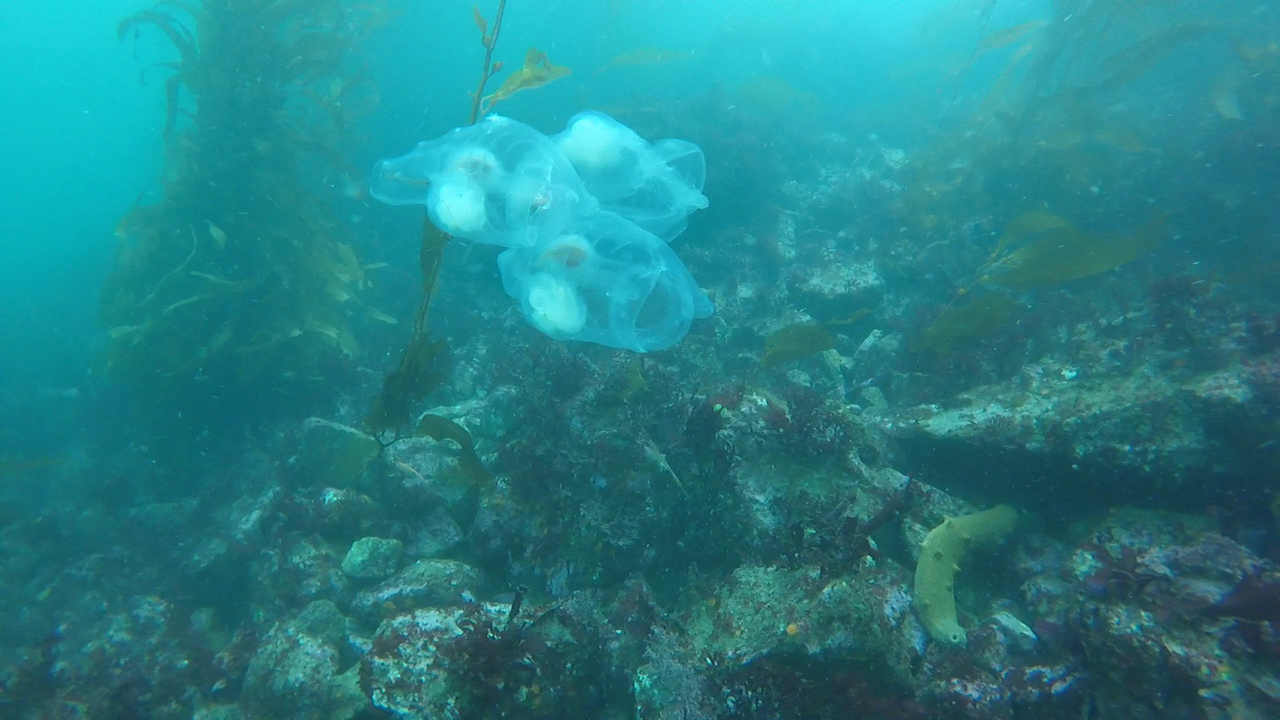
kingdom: Animalia
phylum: Chordata
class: Thaliacea
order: Salpida
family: Salpidae
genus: Thetys
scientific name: Thetys vagina
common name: Vagina salp
